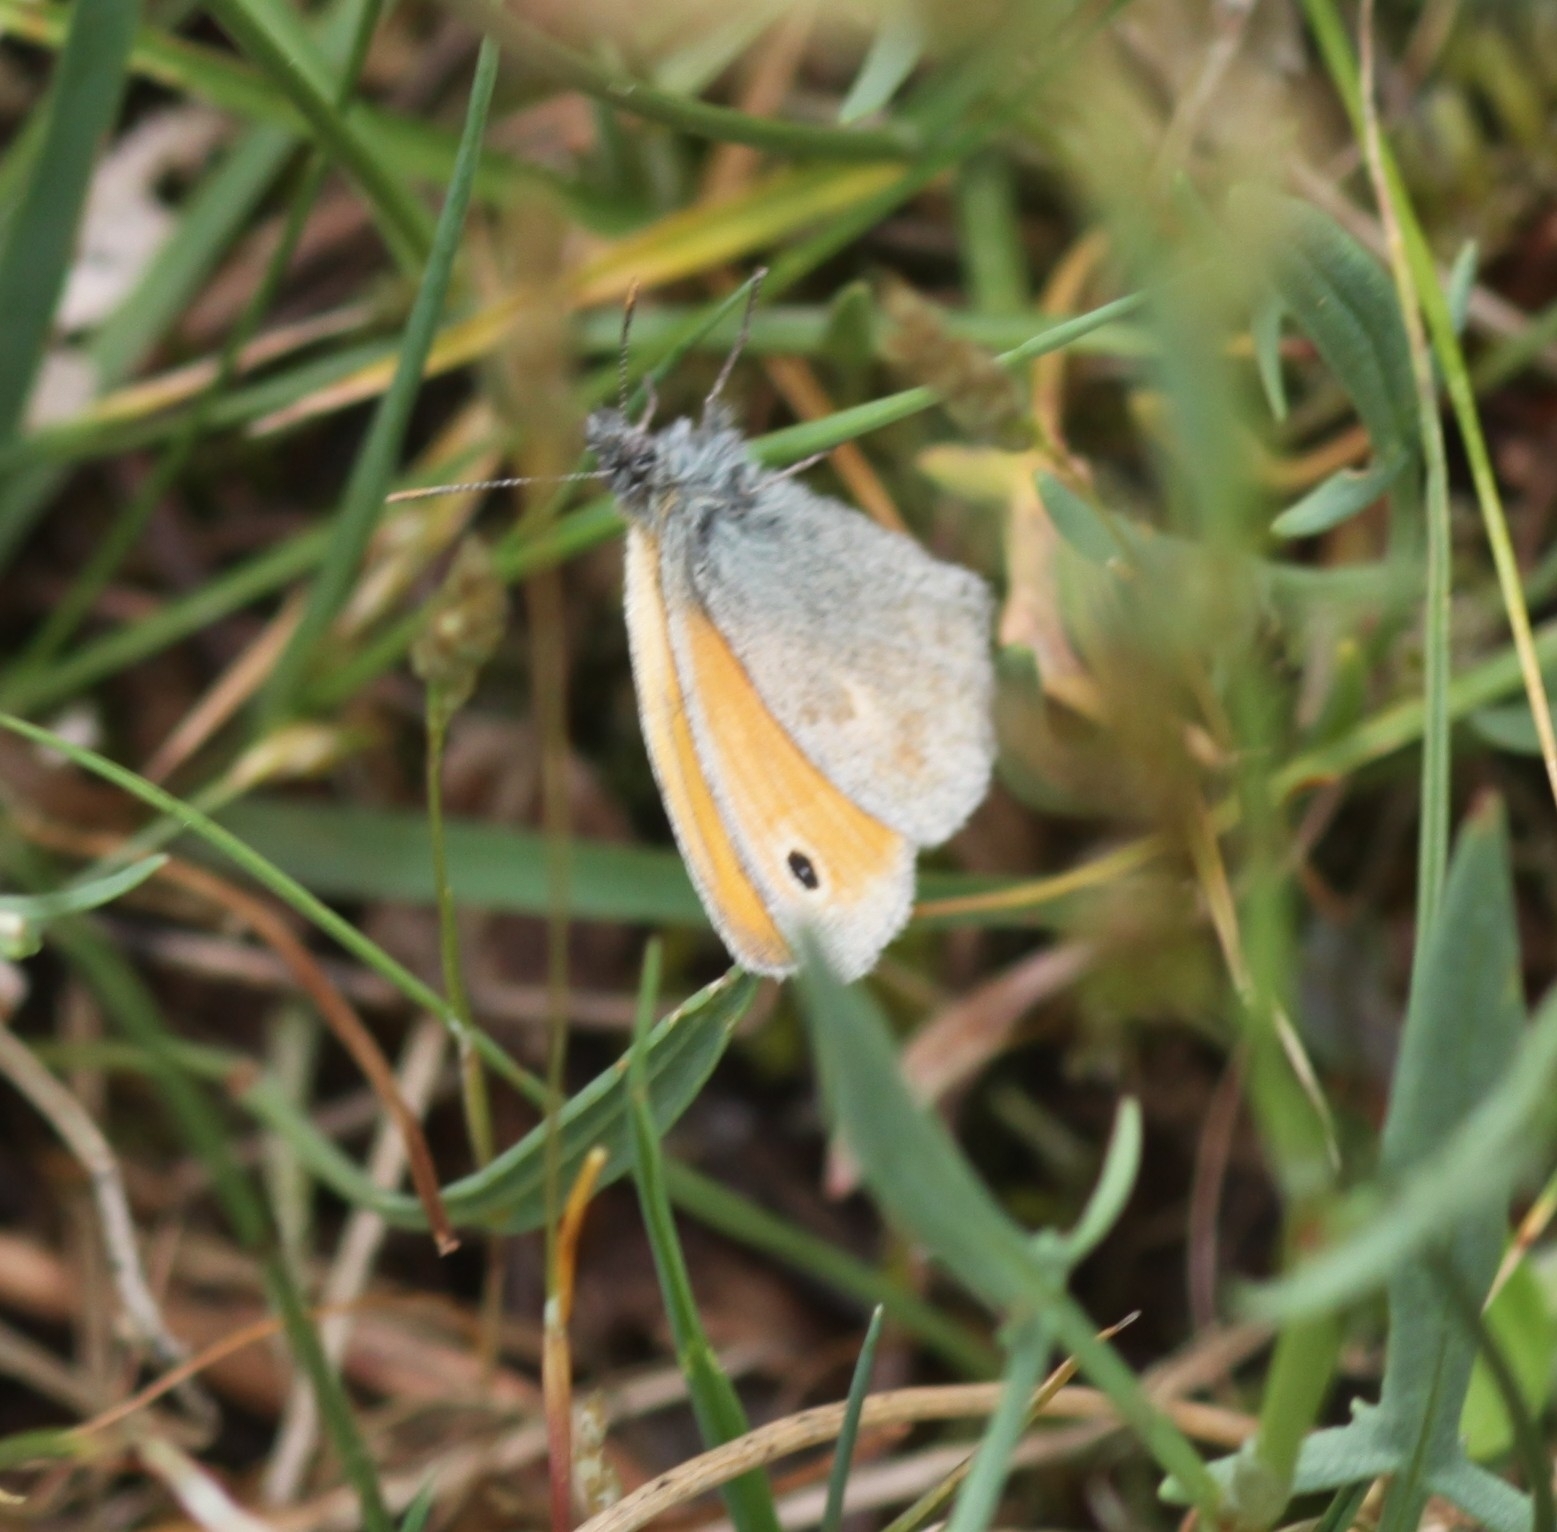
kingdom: Animalia
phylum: Arthropoda
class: Insecta
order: Lepidoptera
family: Nymphalidae
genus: Coenonympha
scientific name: Coenonympha pamphilus
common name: Small heath
